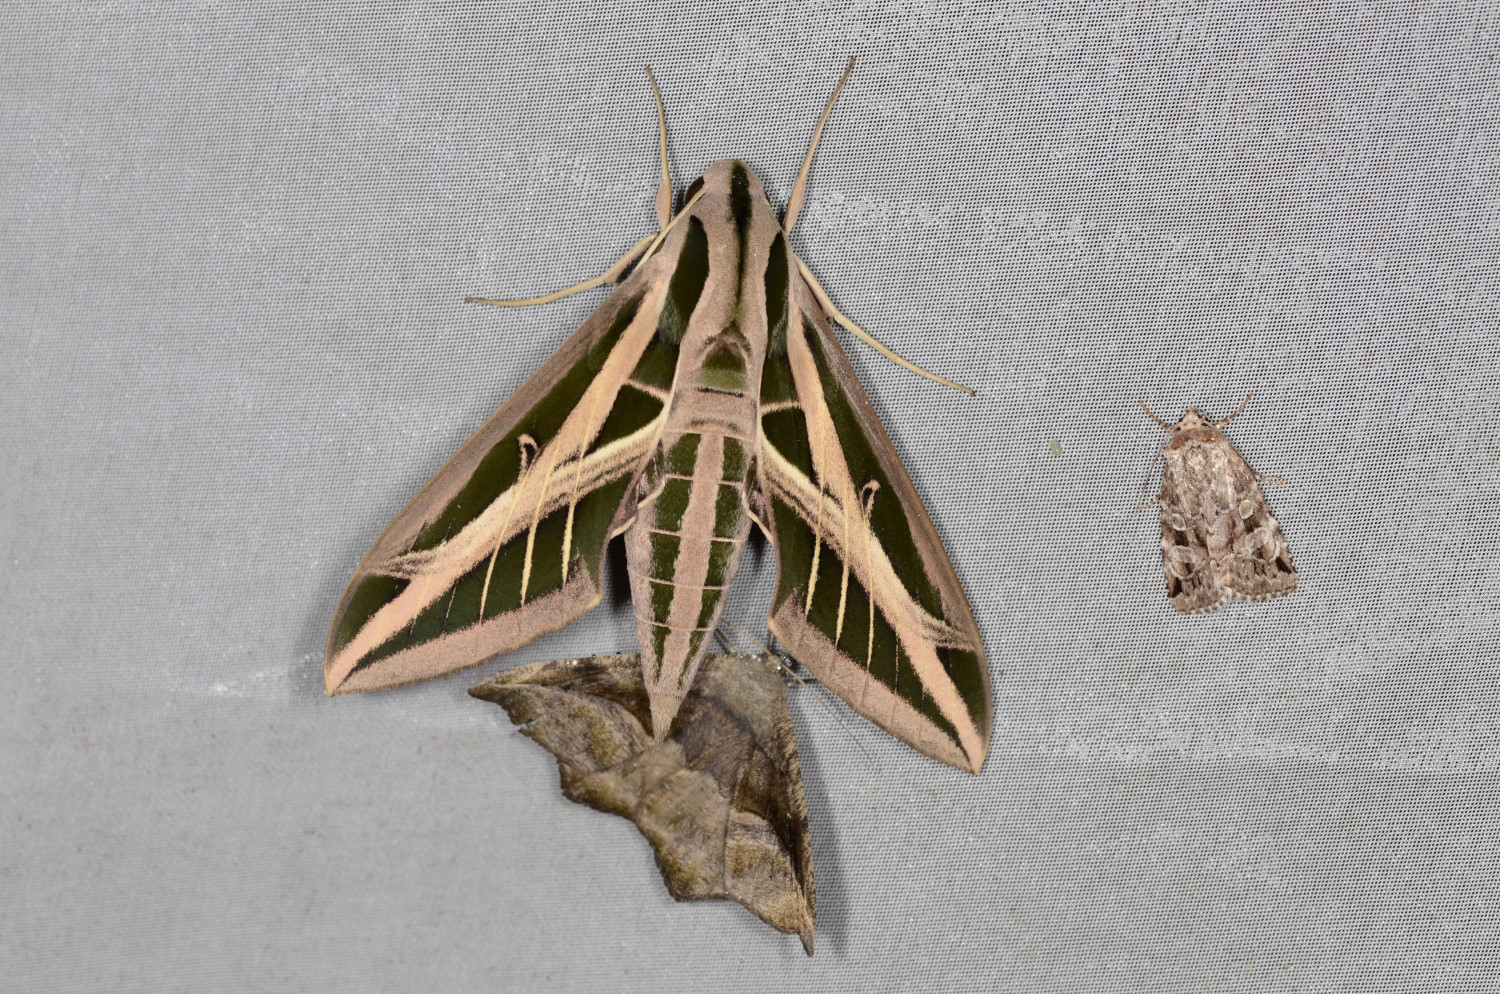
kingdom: Animalia
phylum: Arthropoda
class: Insecta
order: Lepidoptera
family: Sphingidae
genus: Eumorpha
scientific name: Eumorpha fasciatus
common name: Banded sphinx
